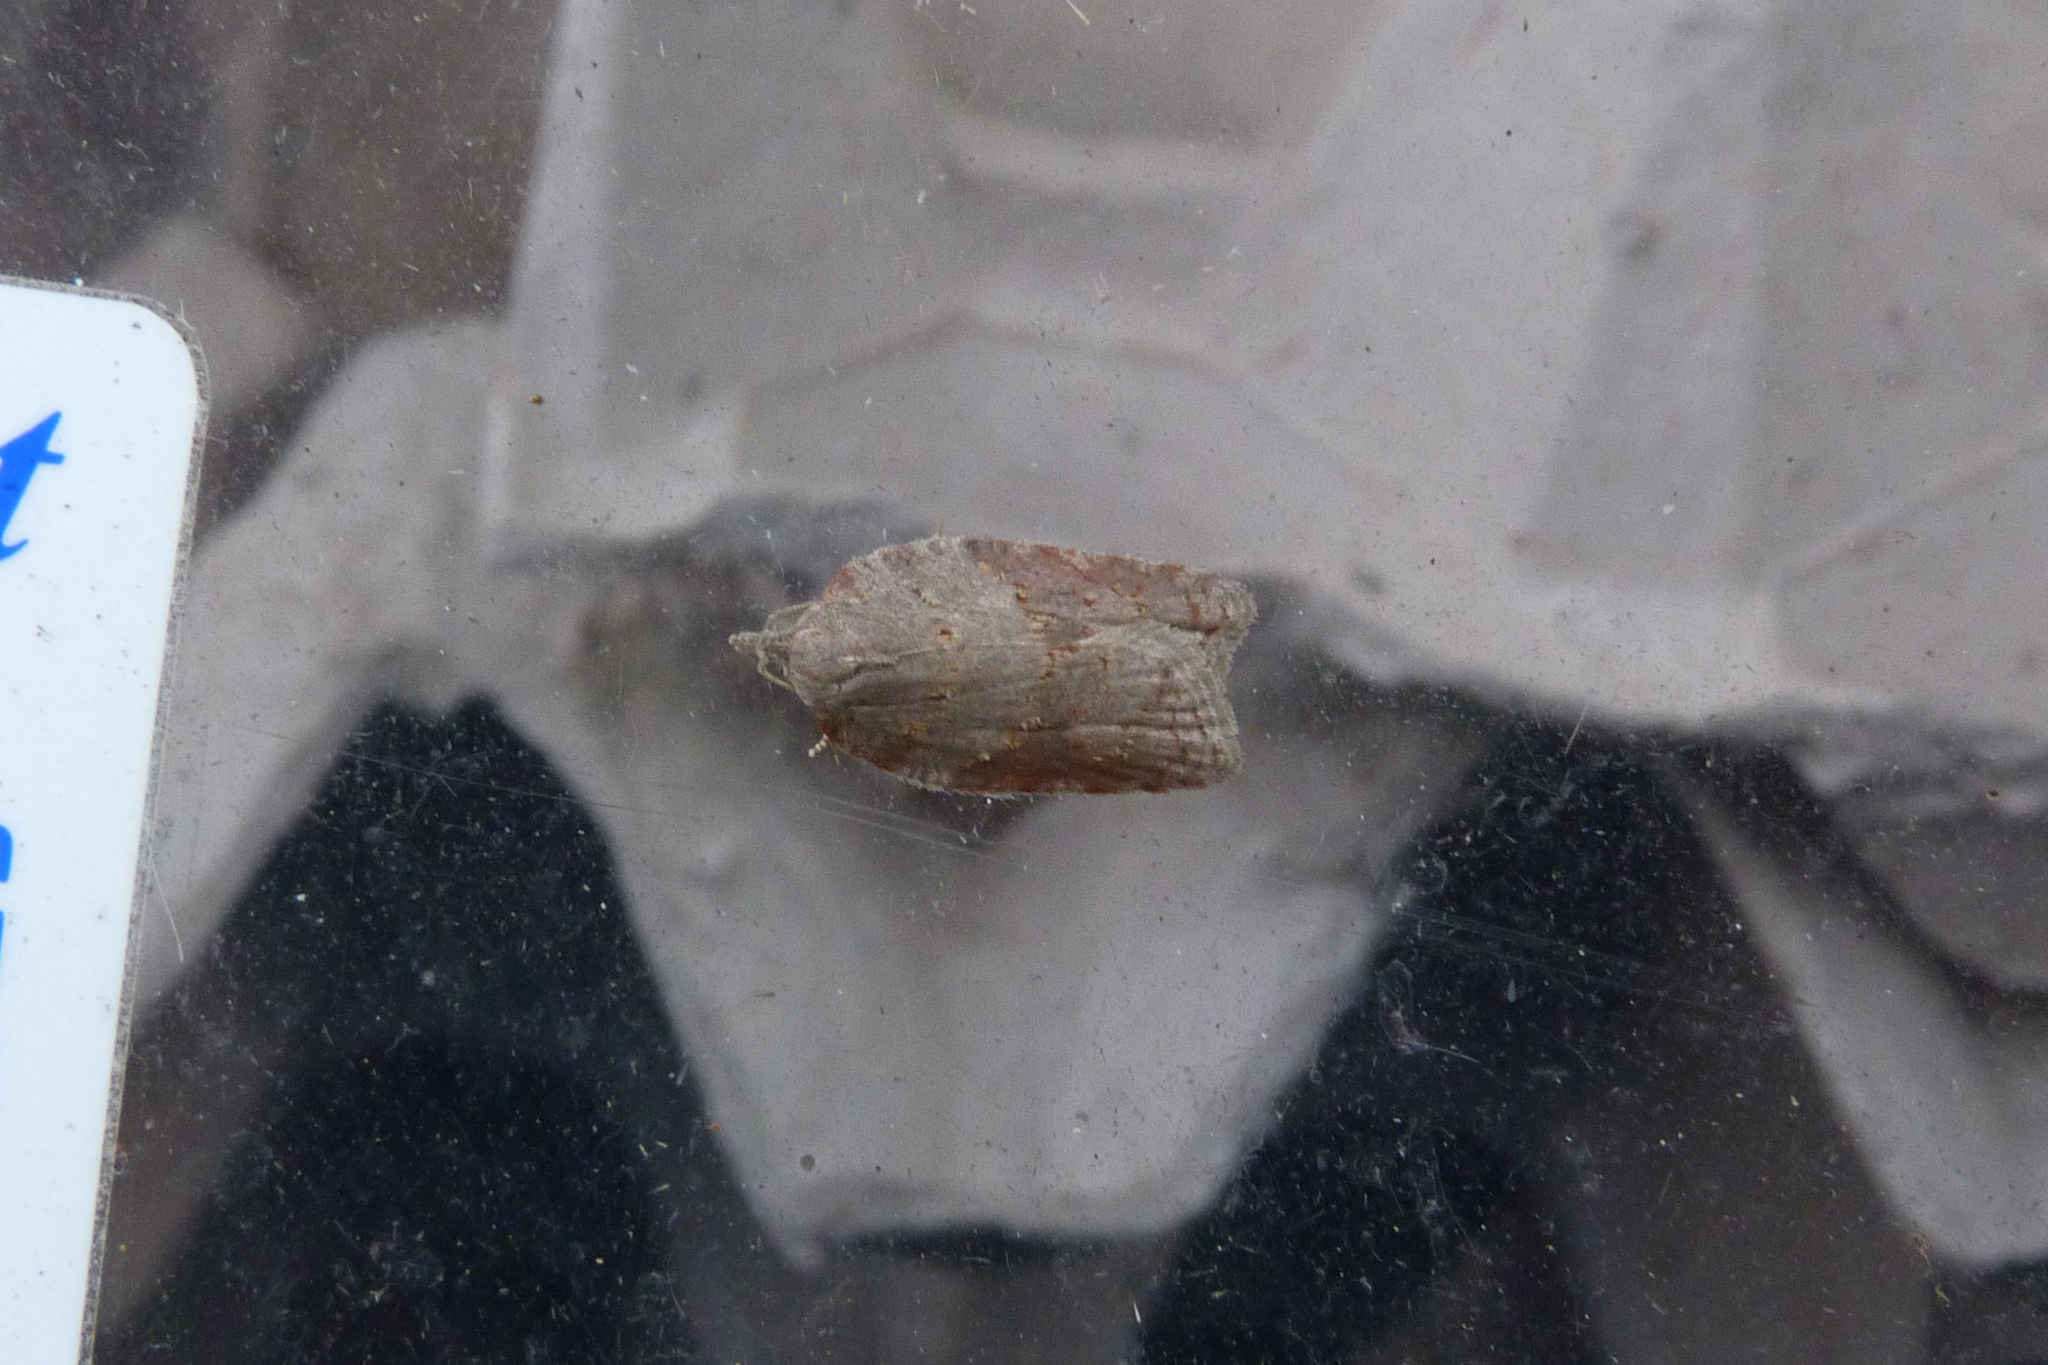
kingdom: Animalia
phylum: Arthropoda
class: Insecta
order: Lepidoptera
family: Tortricidae
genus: Acleris
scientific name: Acleris sparsana
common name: Ashy button
